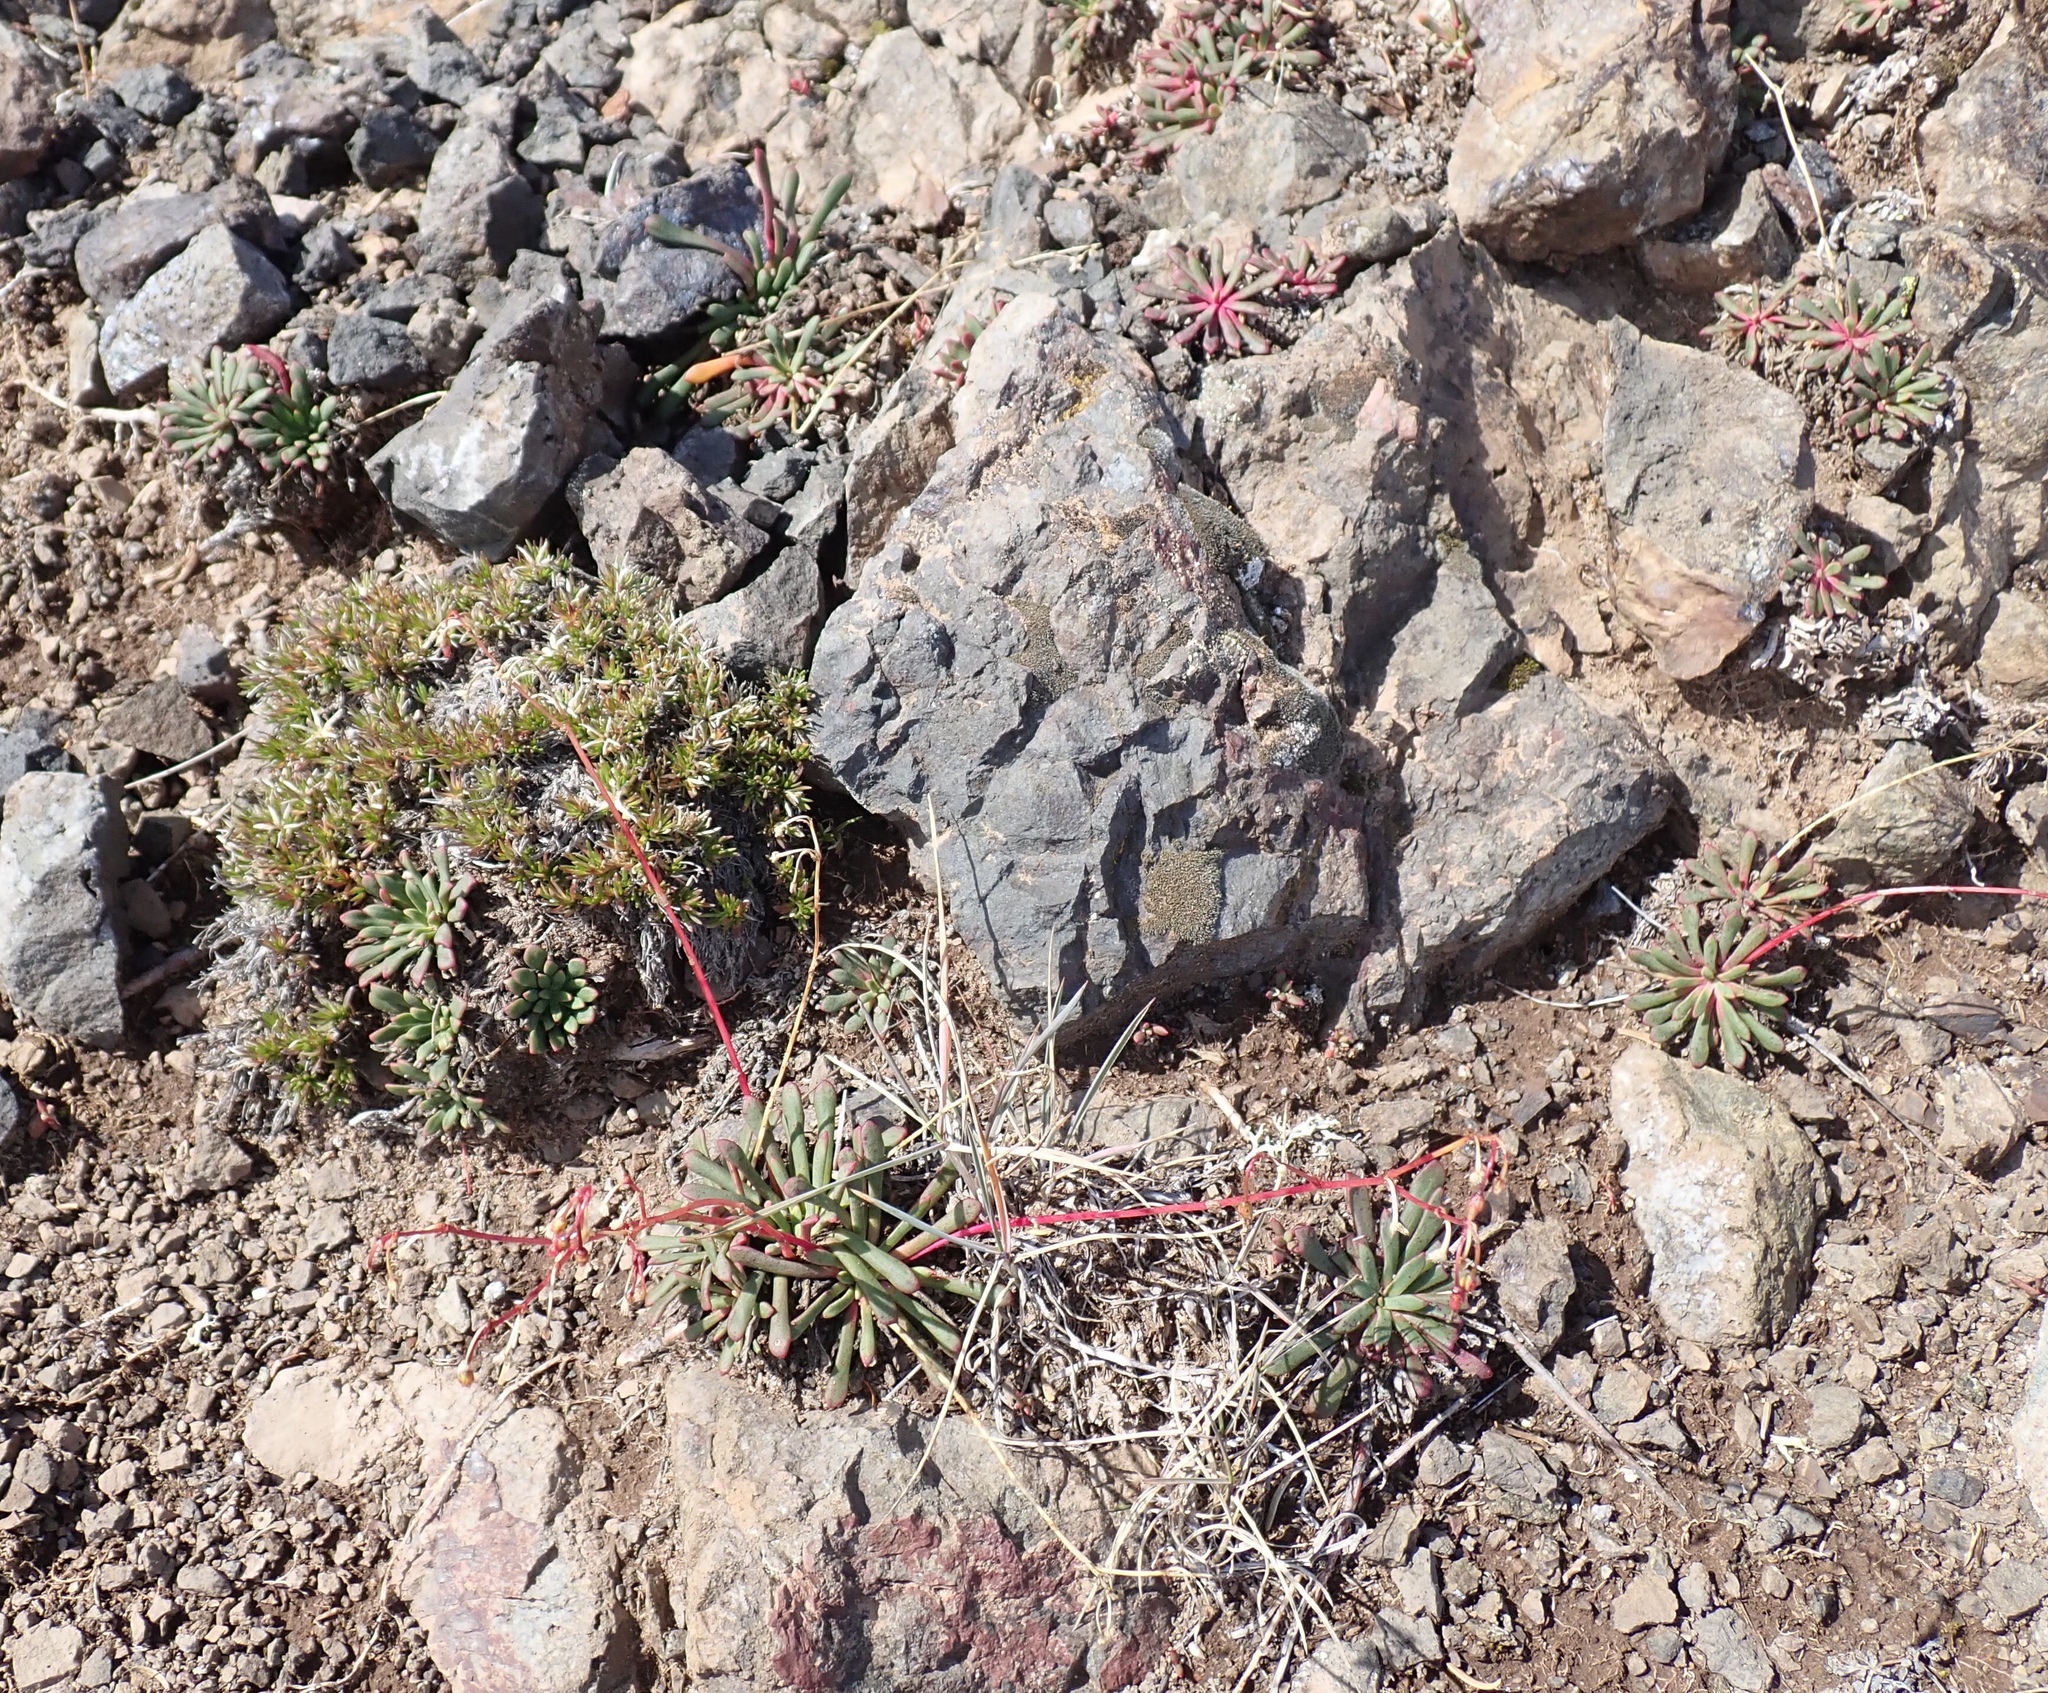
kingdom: Plantae
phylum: Tracheophyta
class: Magnoliopsida
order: Caryophyllales
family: Montiaceae
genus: Lewisia
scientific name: Lewisia columbiana
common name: Columbia lewisia
